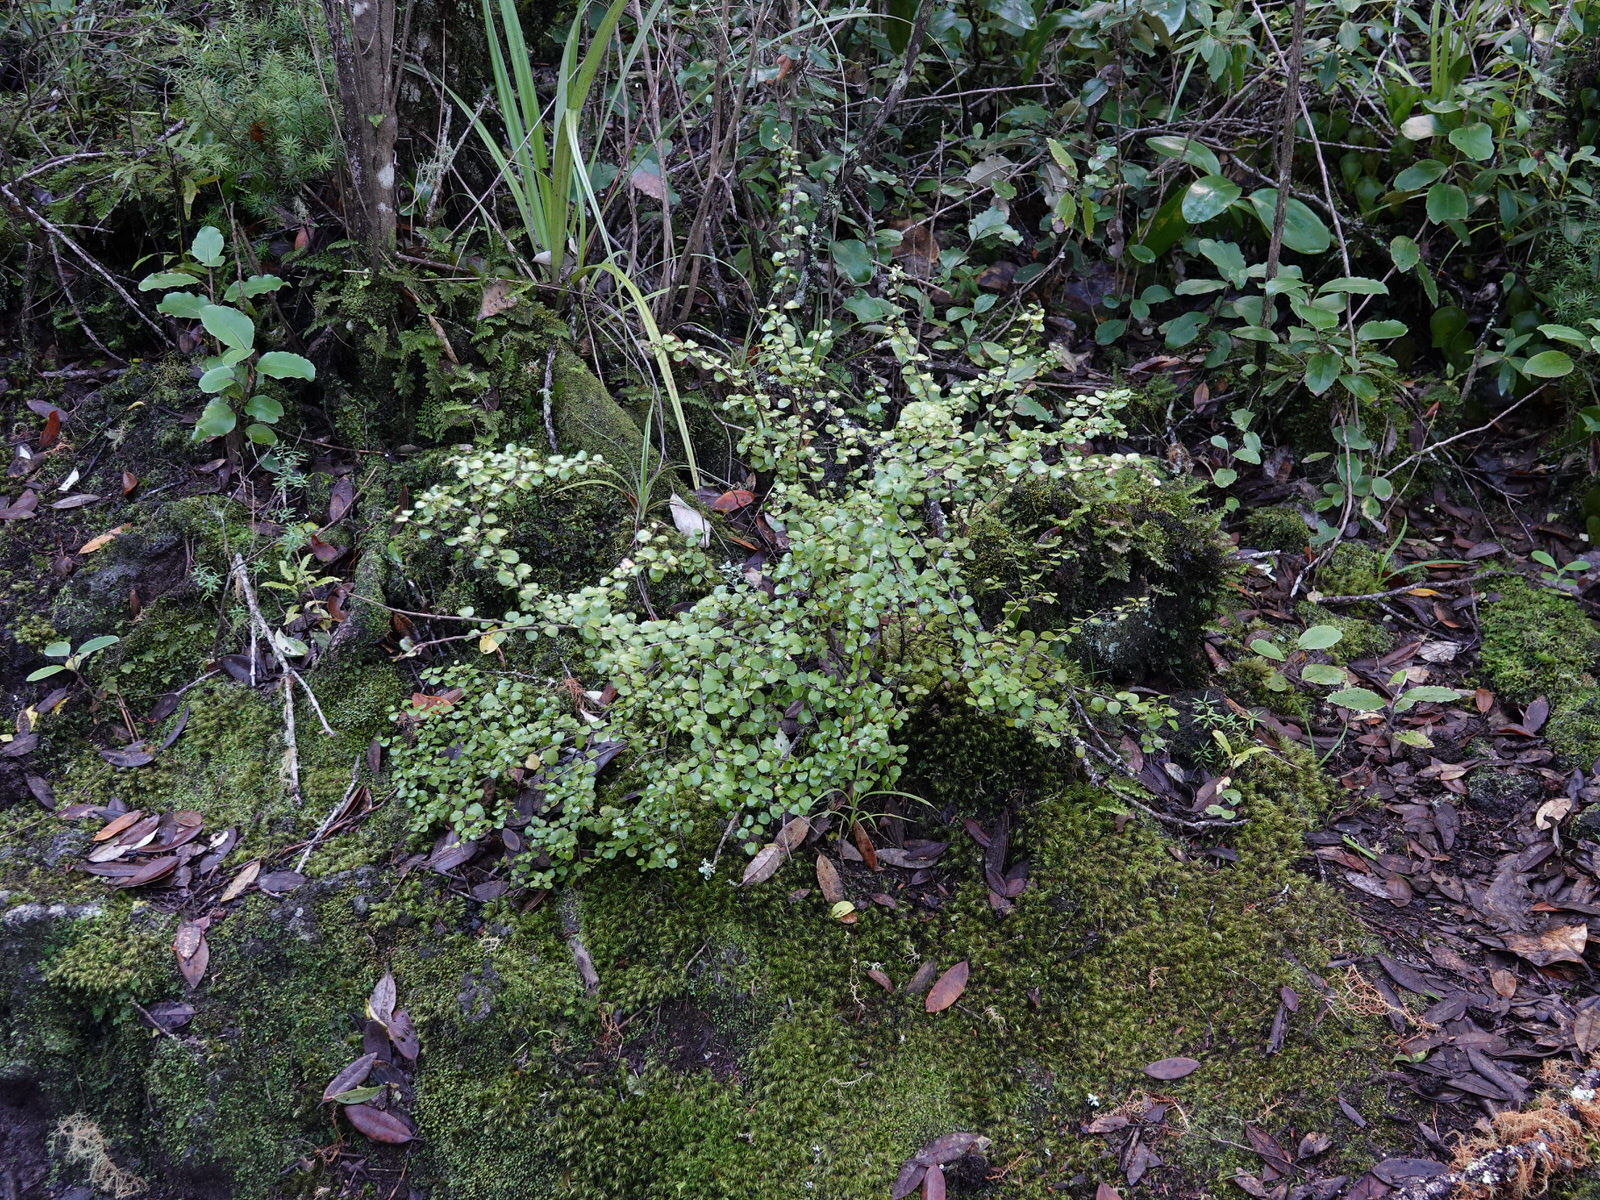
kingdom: Plantae
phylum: Tracheophyta
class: Magnoliopsida
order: Ericales
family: Ericaceae
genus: Gaultheria
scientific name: Gaultheria antipoda
